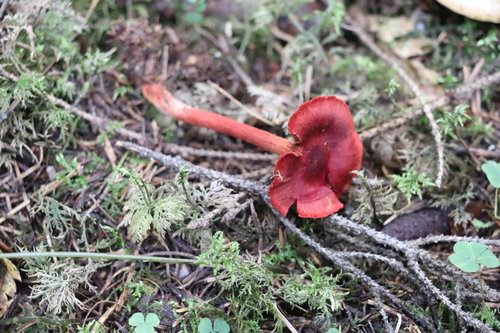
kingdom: Fungi
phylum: Basidiomycota
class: Agaricomycetes
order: Agaricales
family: Cortinariaceae
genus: Cortinarius
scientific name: Cortinarius sanguineus
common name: Bloodred webcap
